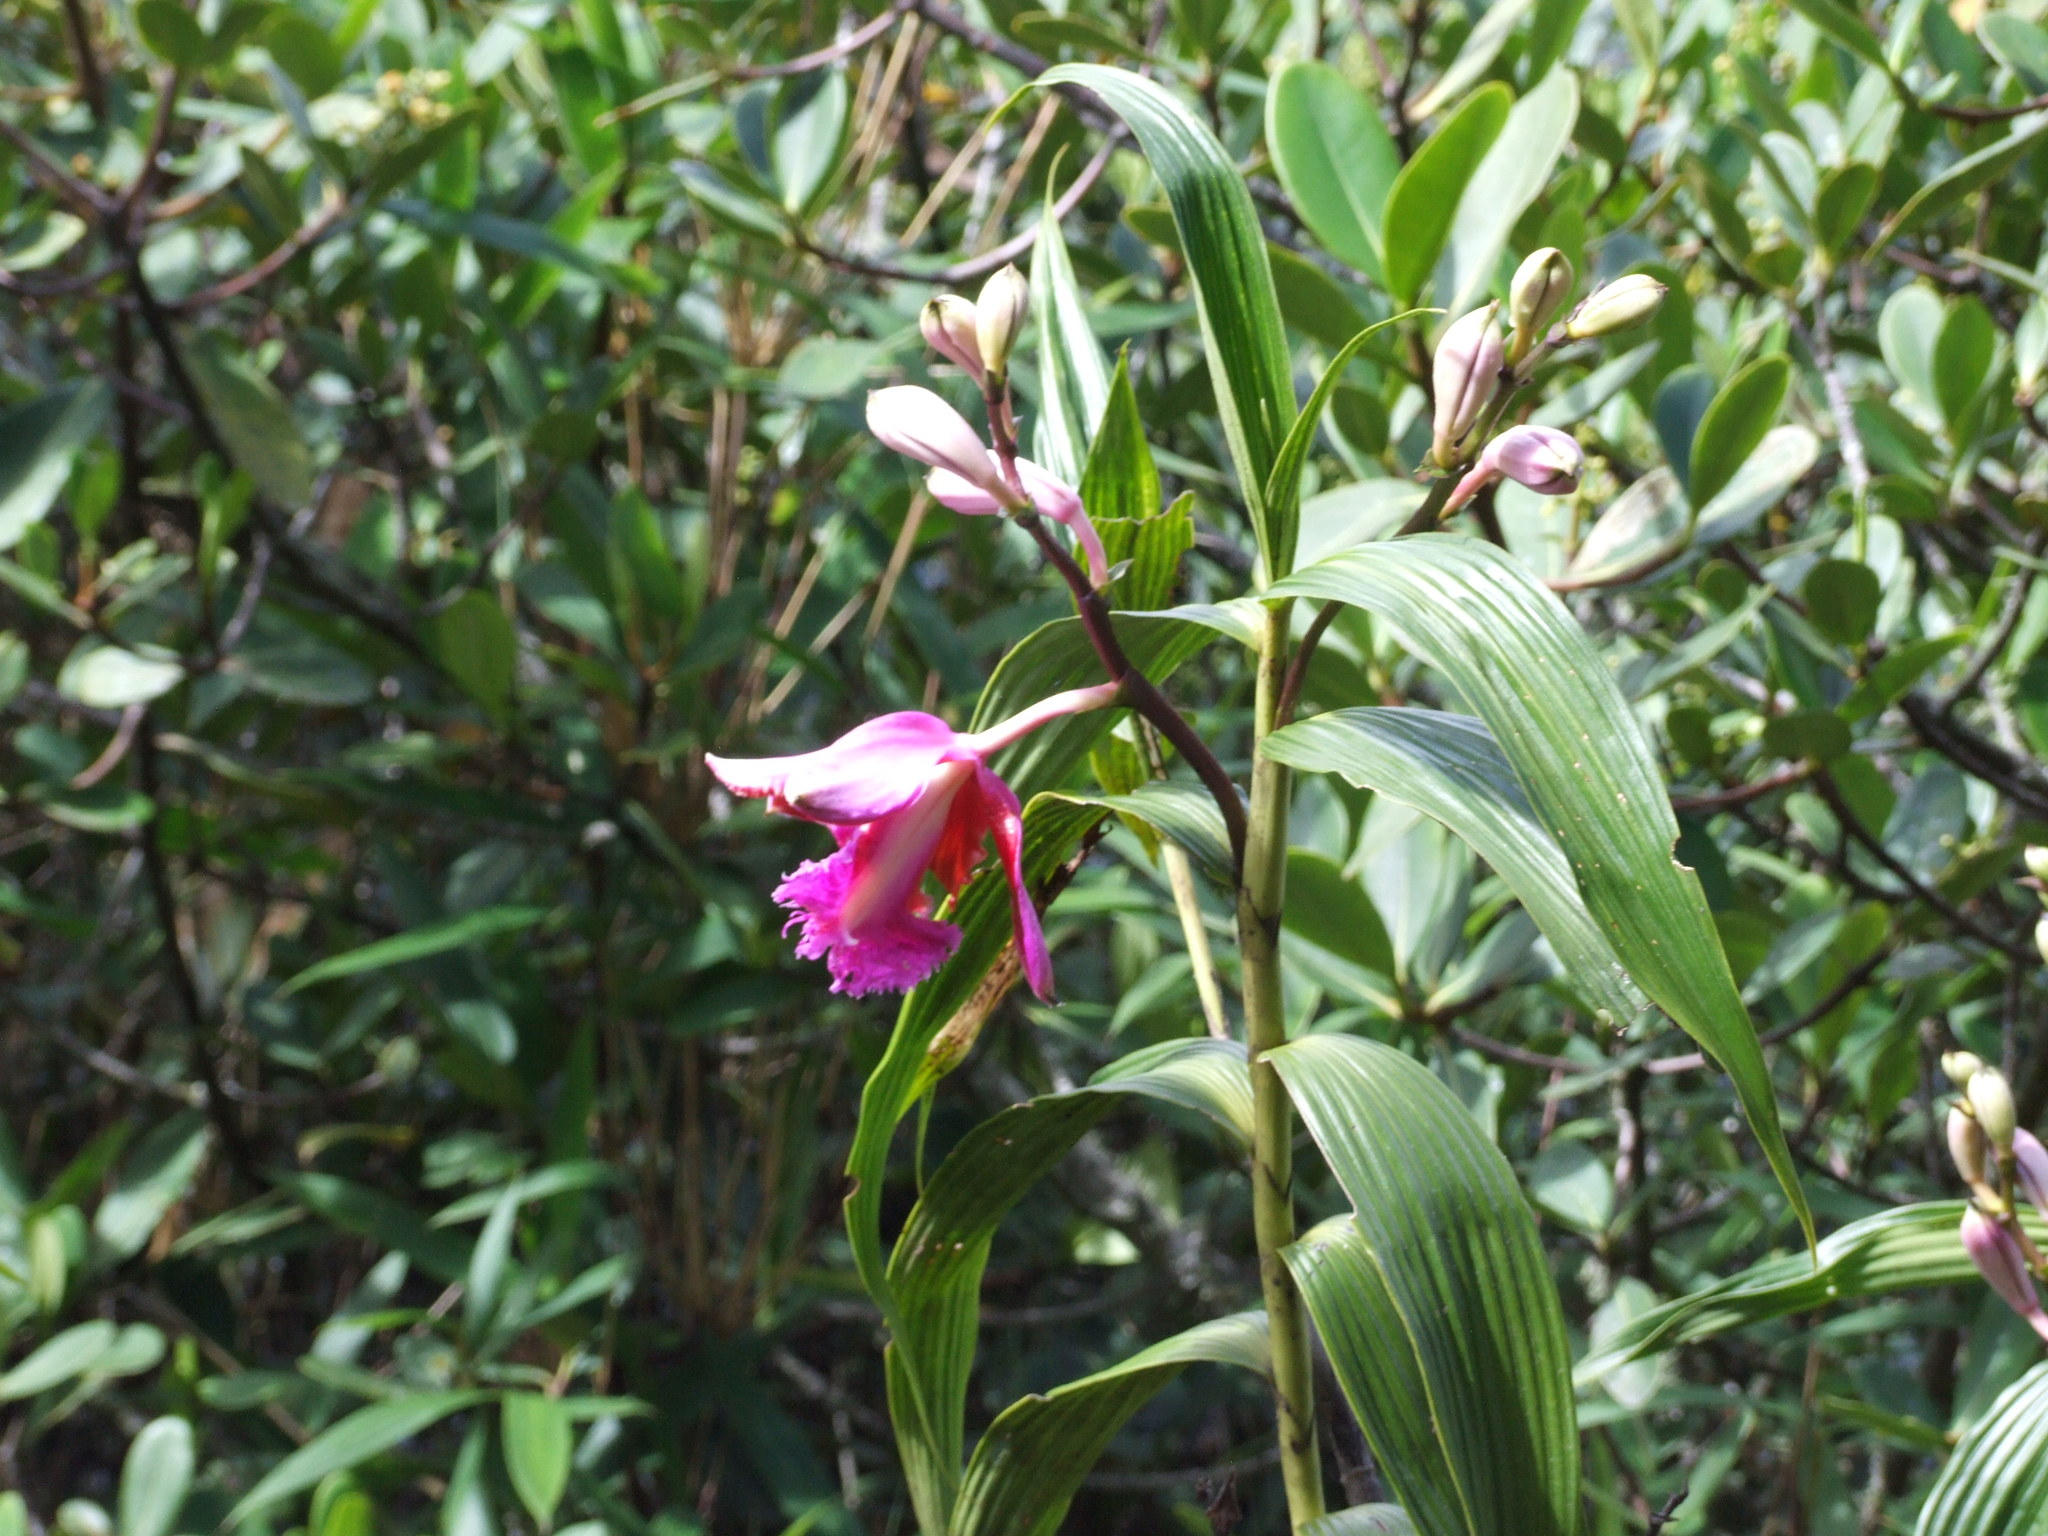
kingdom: Plantae
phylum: Tracheophyta
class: Liliopsida
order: Asparagales
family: Orchidaceae
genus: Sobralia
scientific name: Sobralia dichotoma
